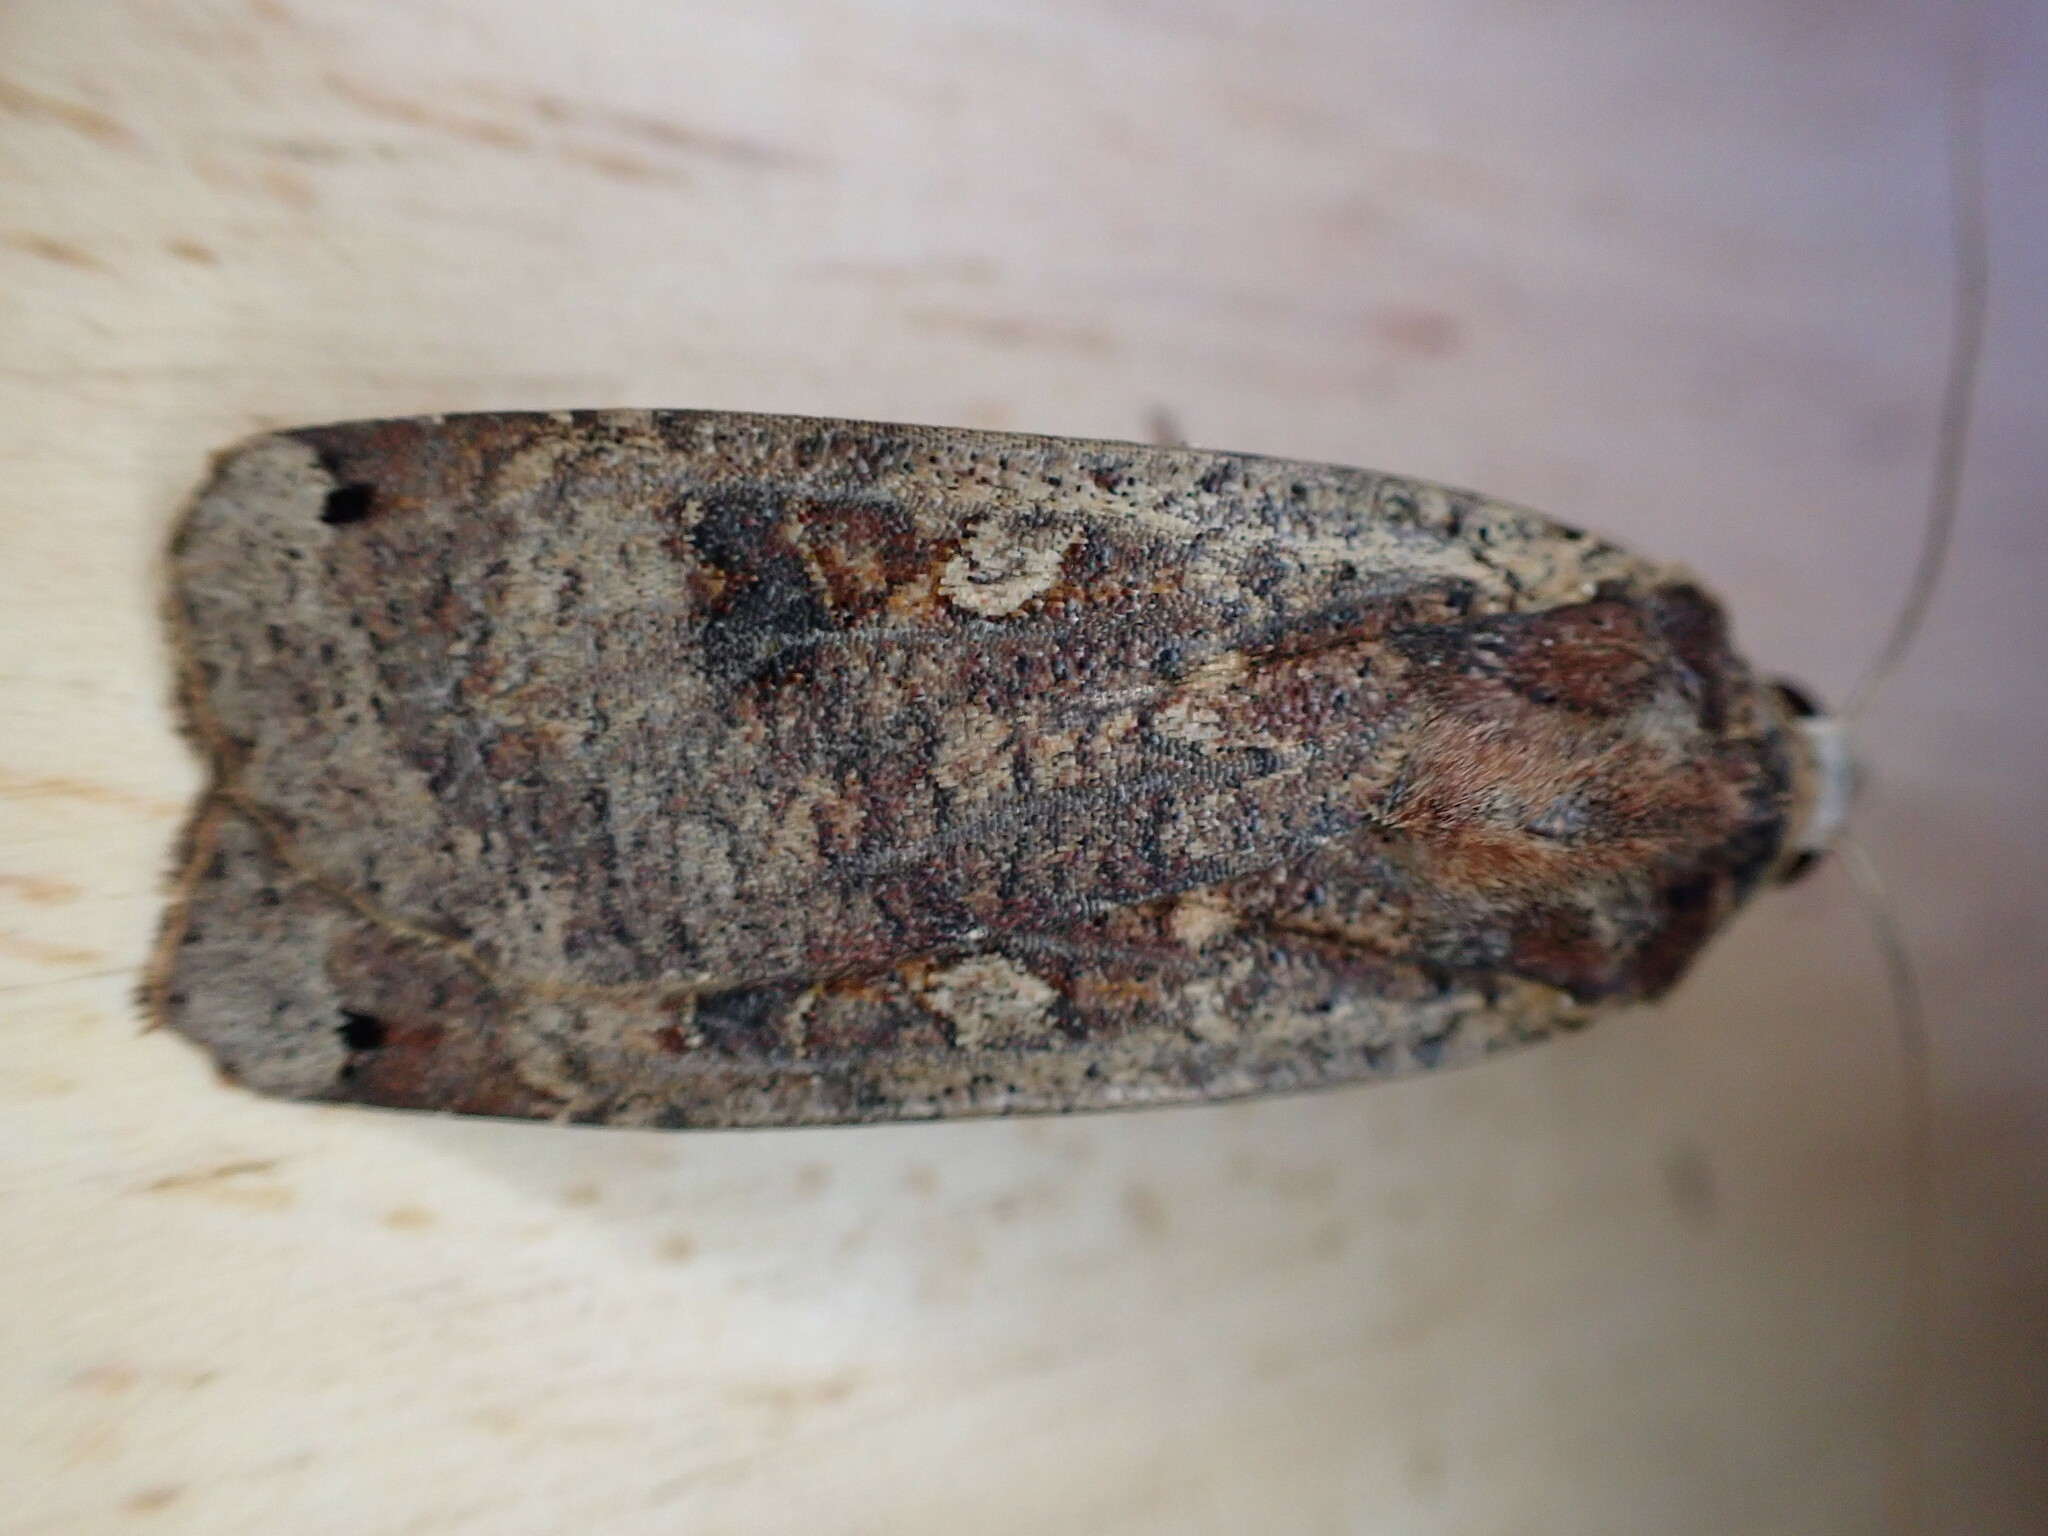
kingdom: Animalia
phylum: Arthropoda
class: Insecta
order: Lepidoptera
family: Noctuidae
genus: Noctua
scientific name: Noctua pronuba
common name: Large yellow underwing
